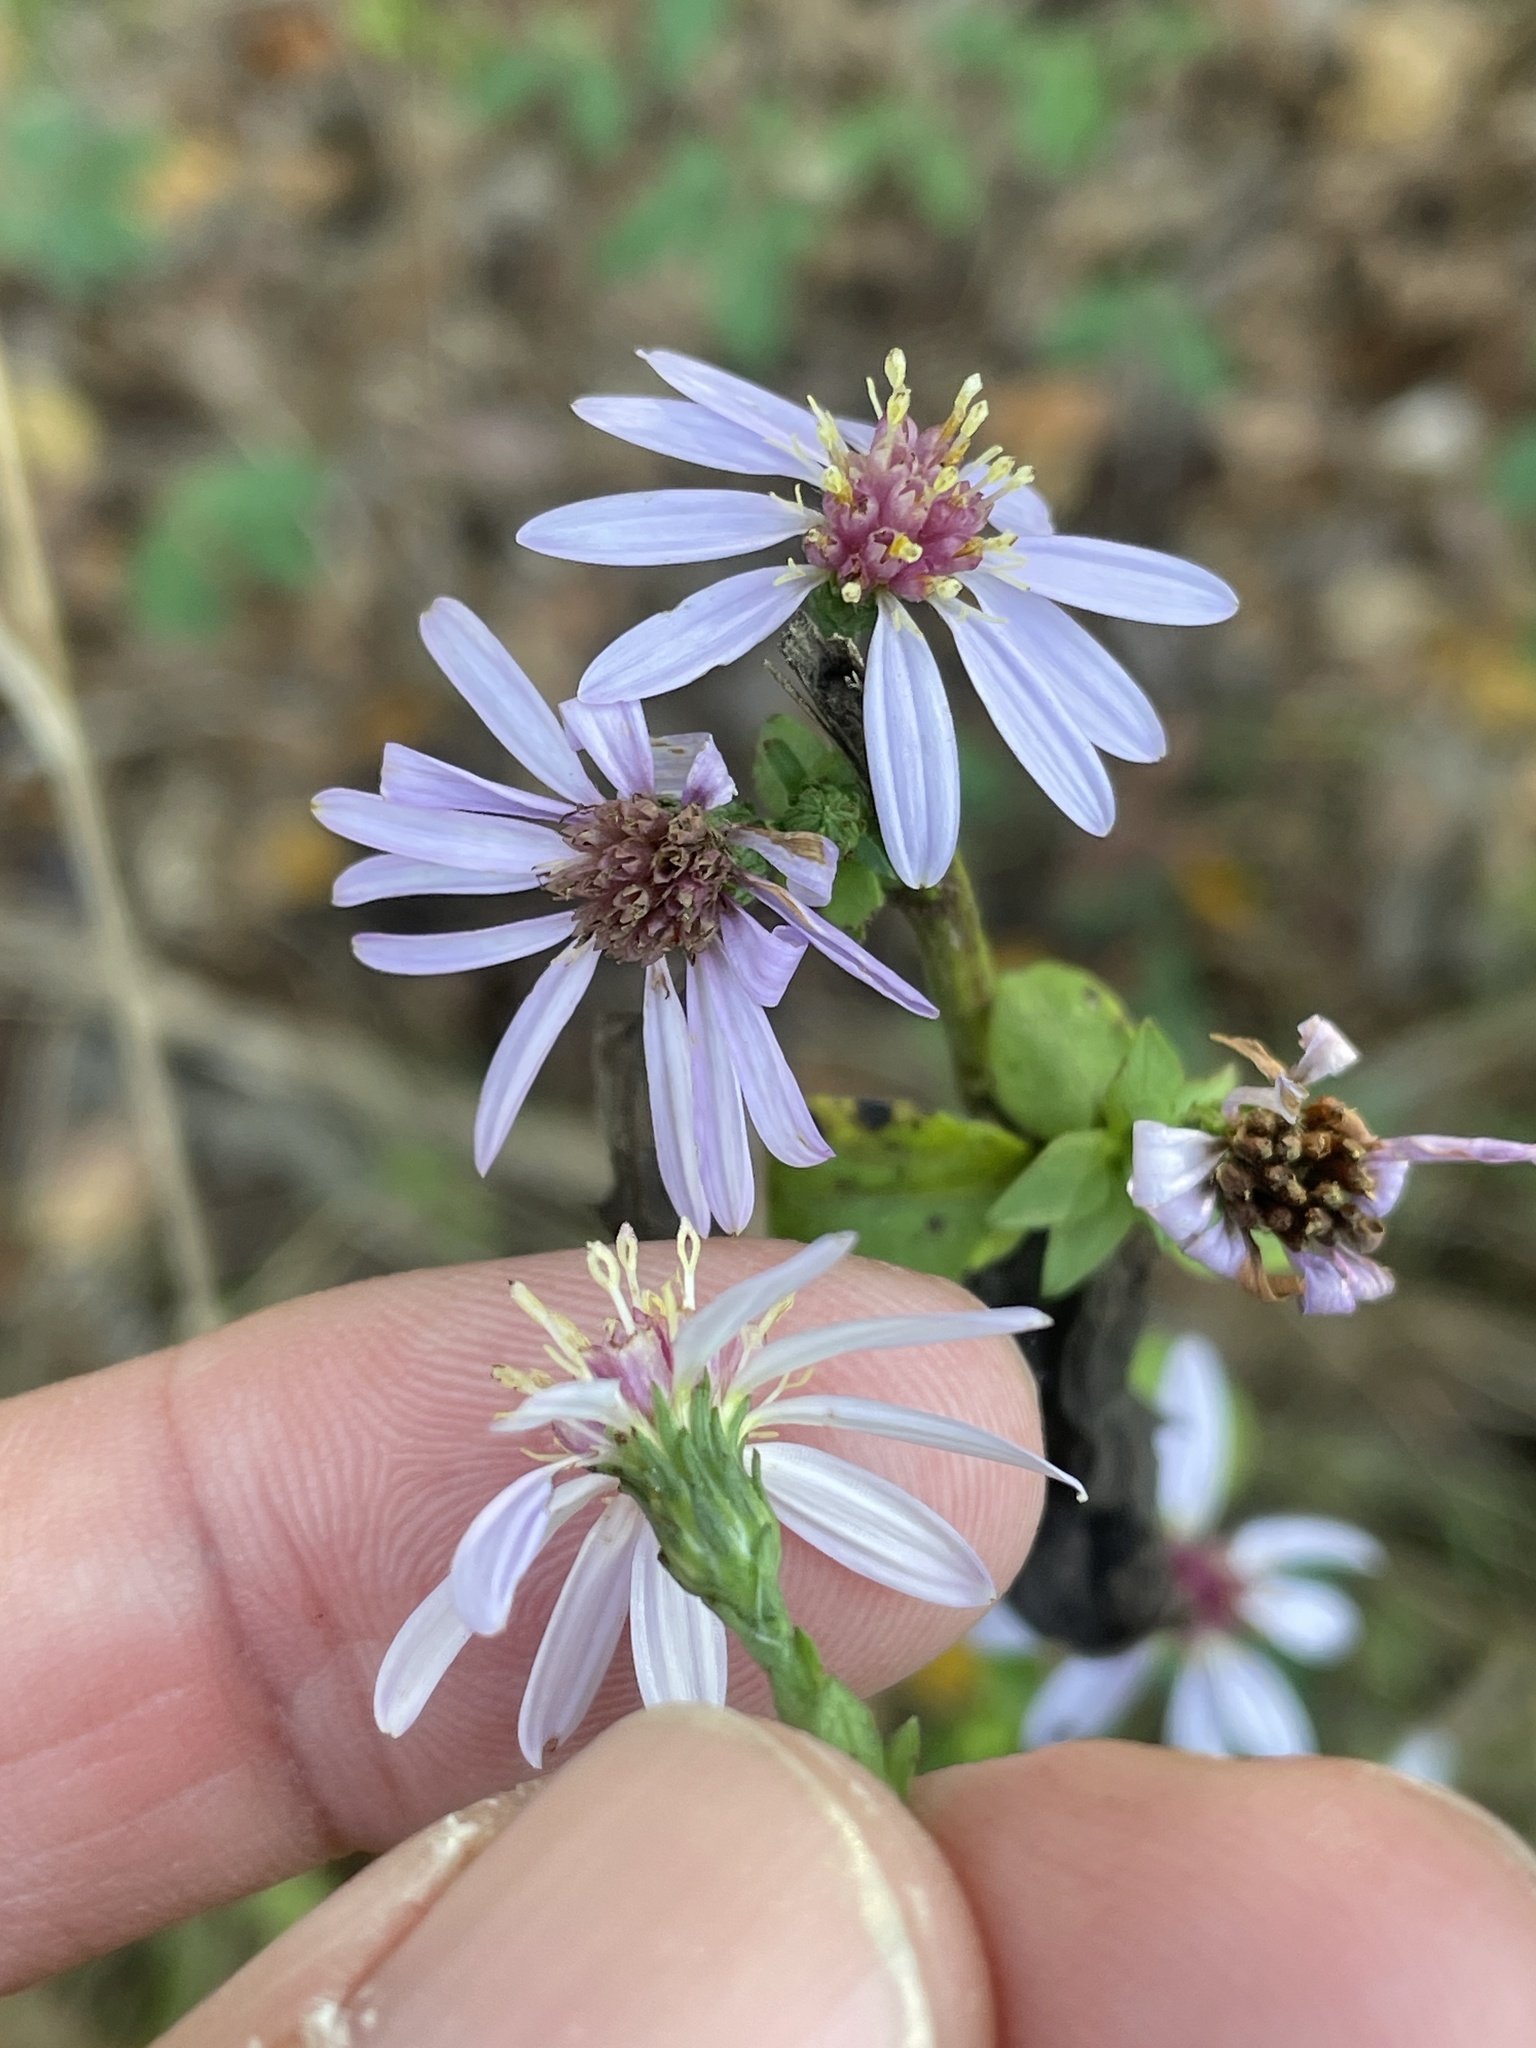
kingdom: Plantae
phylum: Tracheophyta
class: Magnoliopsida
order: Asterales
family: Asteraceae
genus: Symphyotrichum
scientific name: Symphyotrichum drummondii
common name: Drummond's aster
